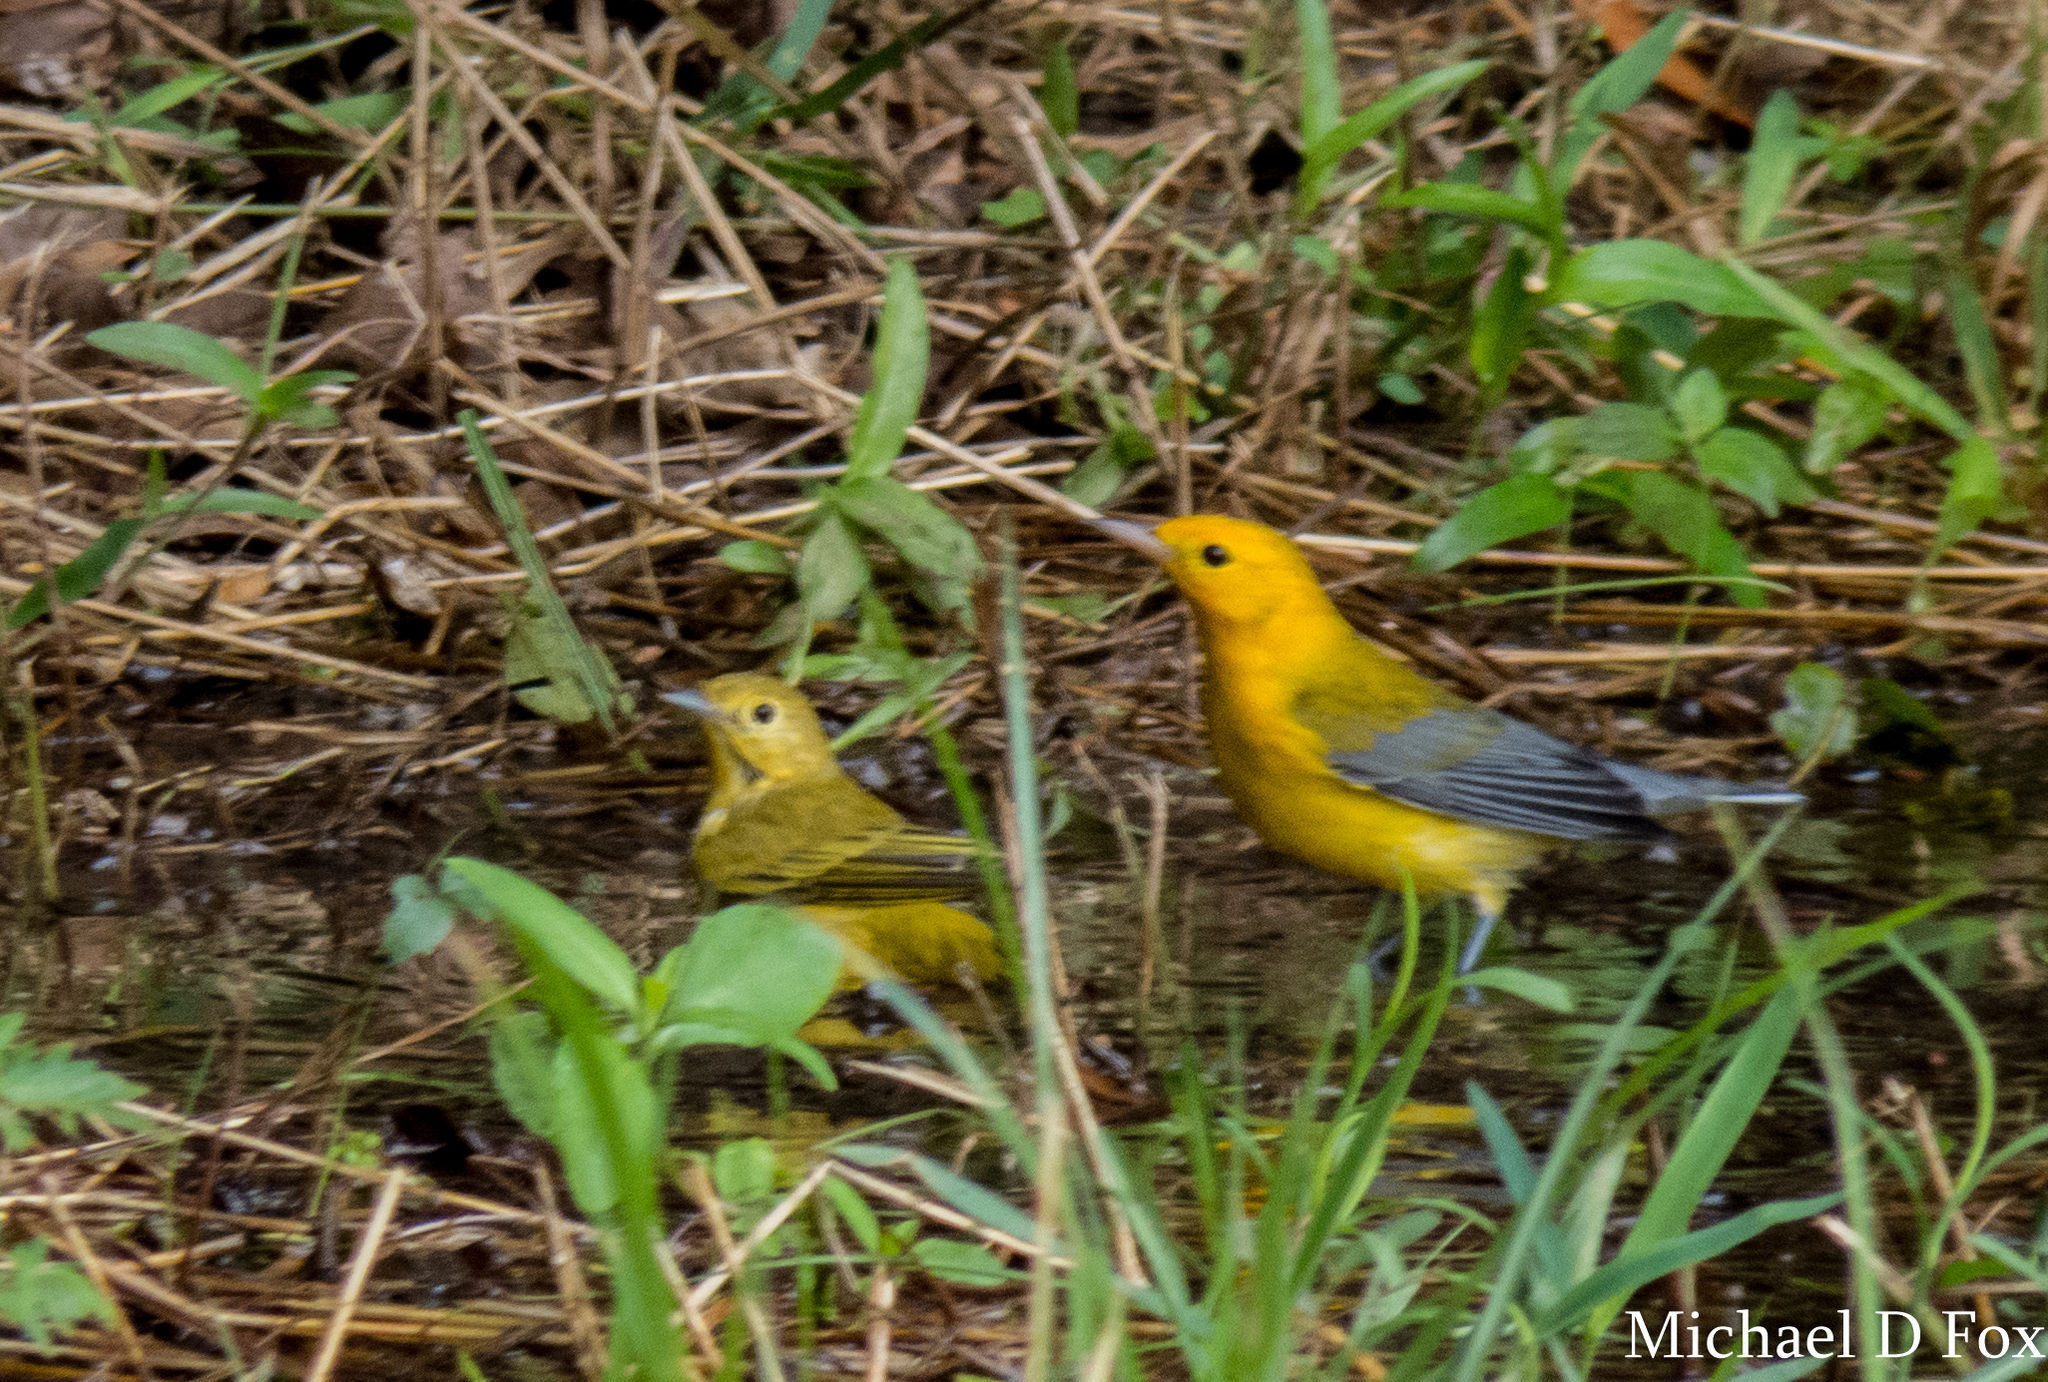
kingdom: Animalia
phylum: Chordata
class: Aves
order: Passeriformes
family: Parulidae
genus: Protonotaria
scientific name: Protonotaria citrea
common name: Prothonotary warbler
